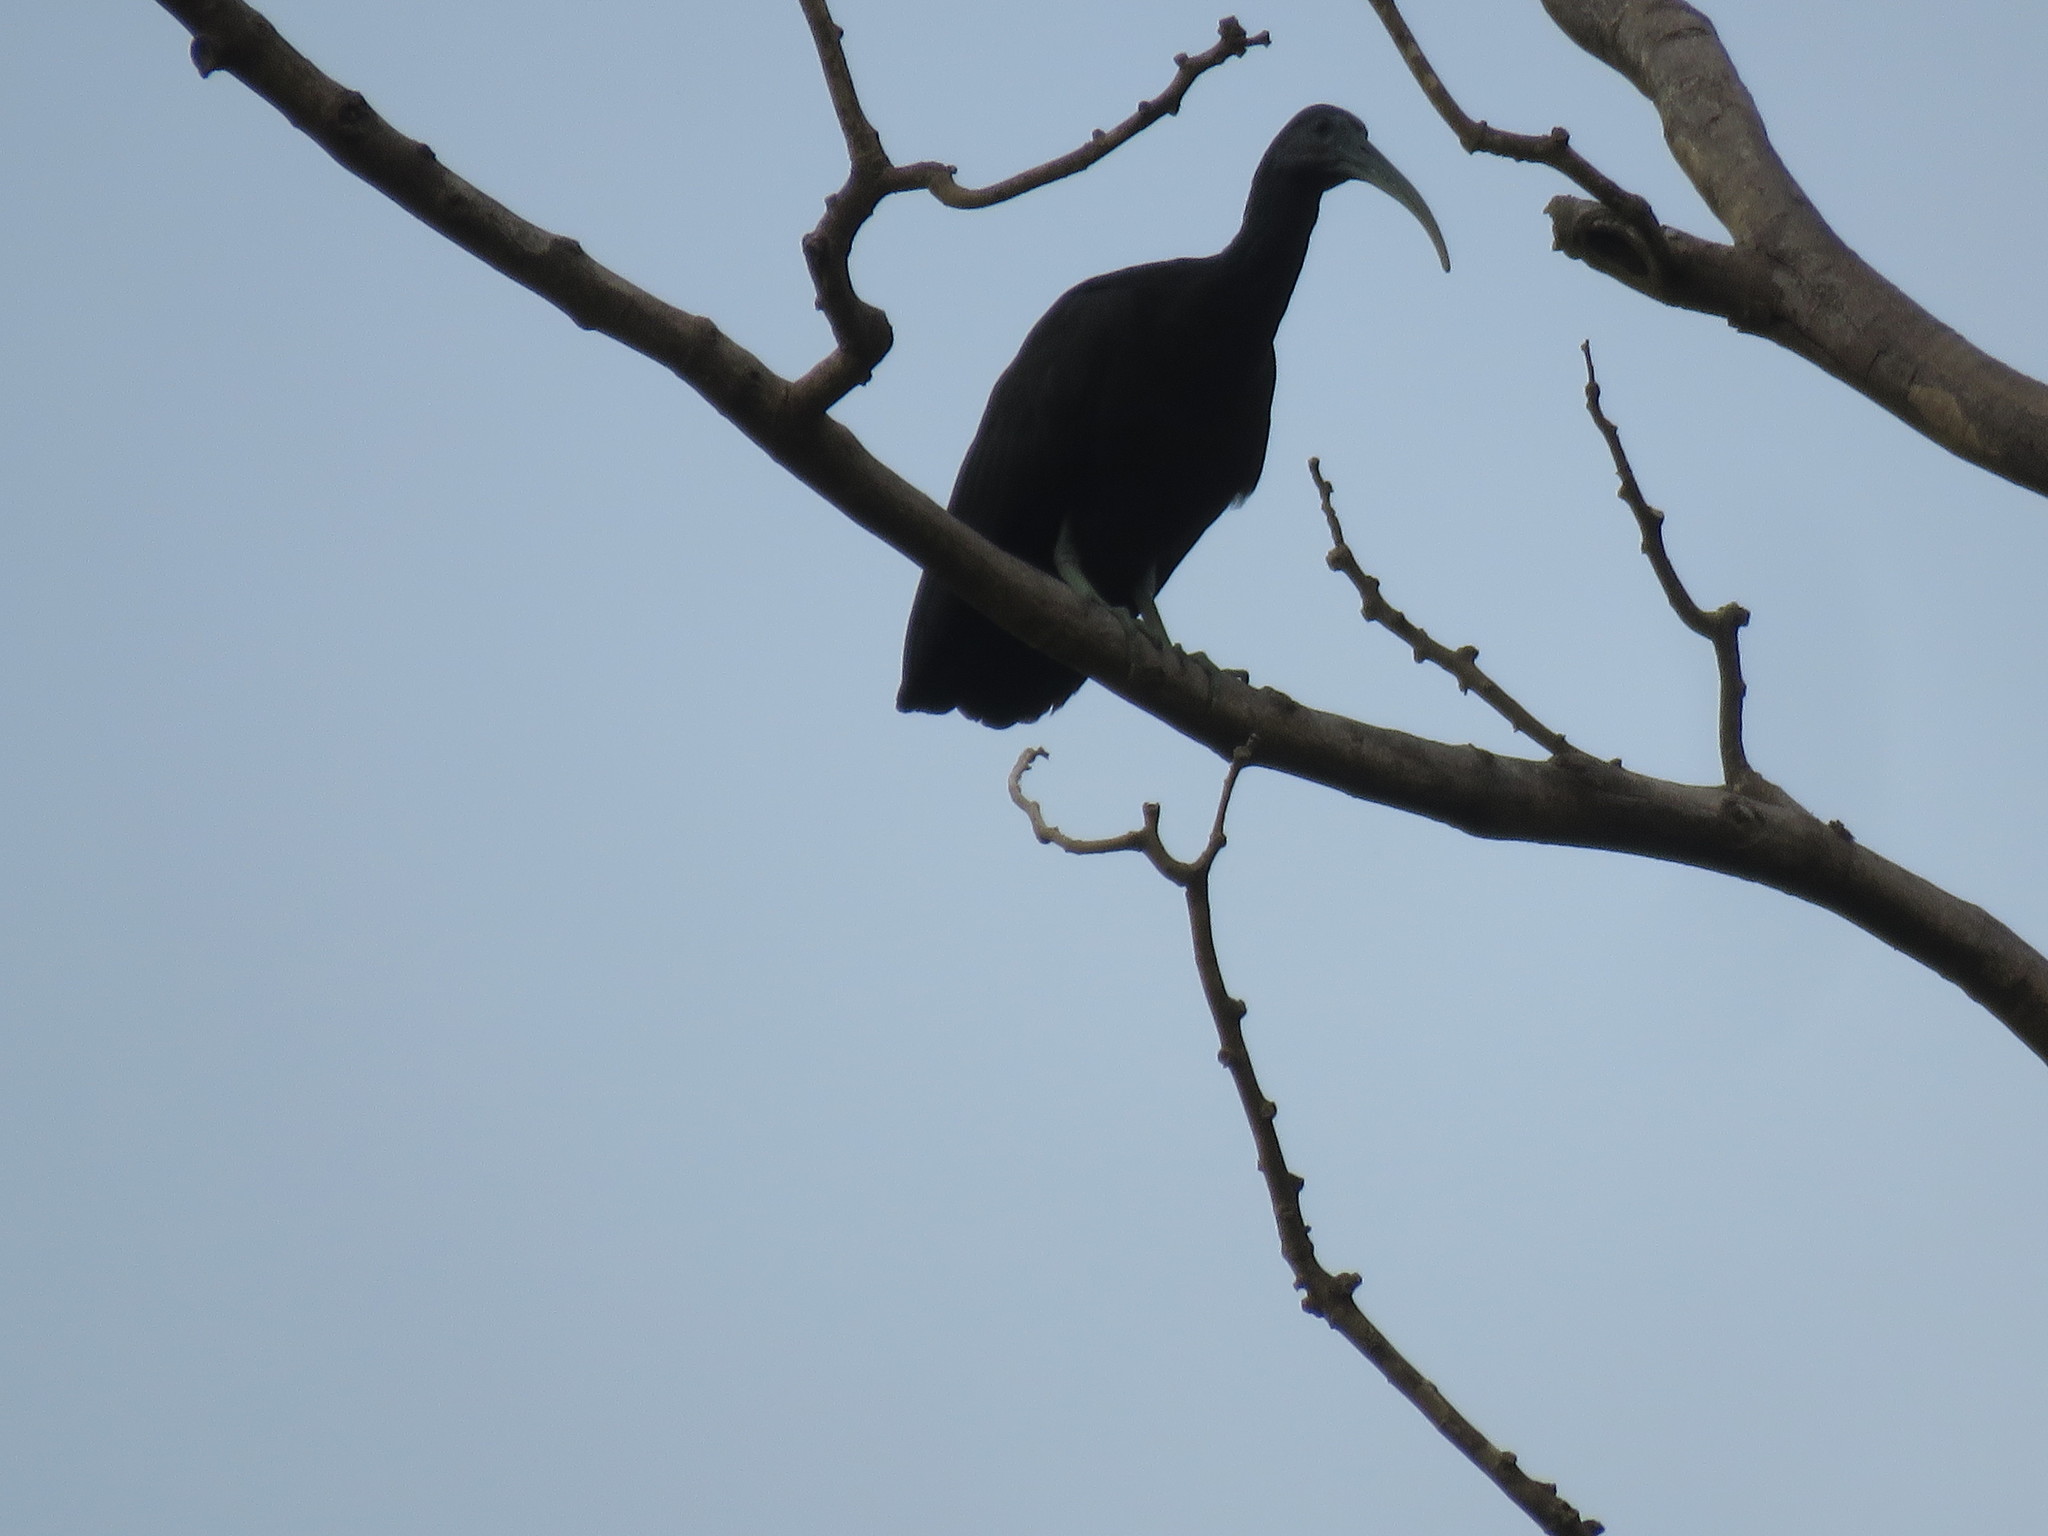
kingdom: Animalia
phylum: Chordata
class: Aves
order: Pelecaniformes
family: Threskiornithidae
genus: Mesembrinibis
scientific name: Mesembrinibis cayennensis
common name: Green ibis
